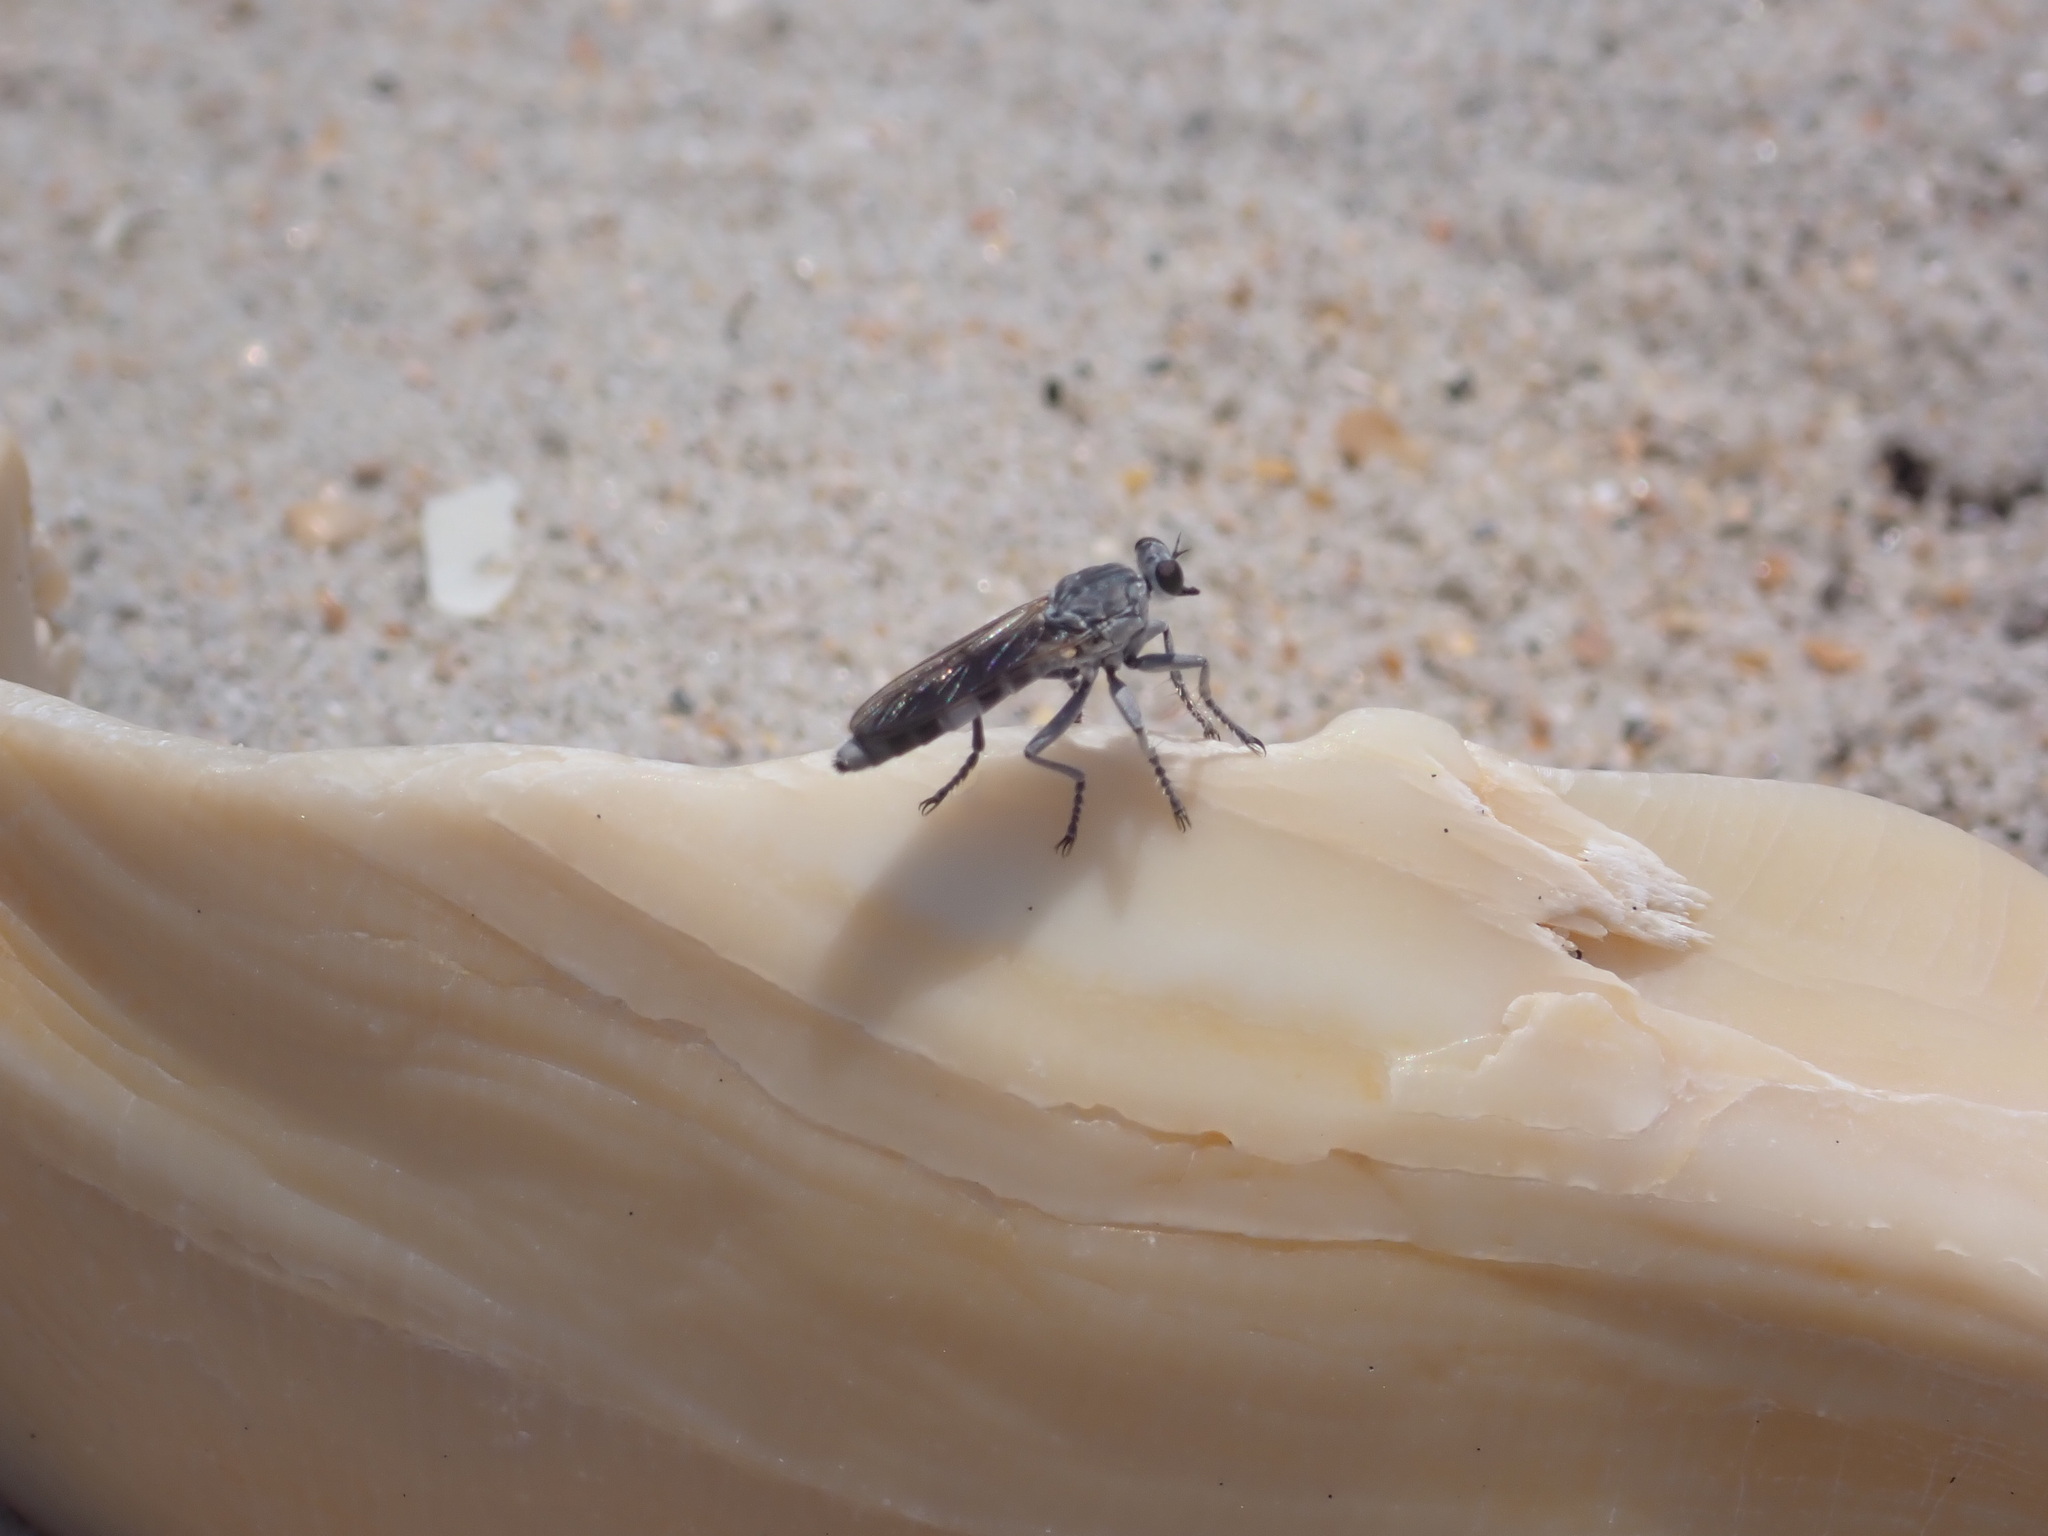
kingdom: Animalia
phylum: Arthropoda
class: Insecta
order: Diptera
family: Asilidae
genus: Stichopogon
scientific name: Stichopogon trifasciatus
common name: Three-banded robber fly
